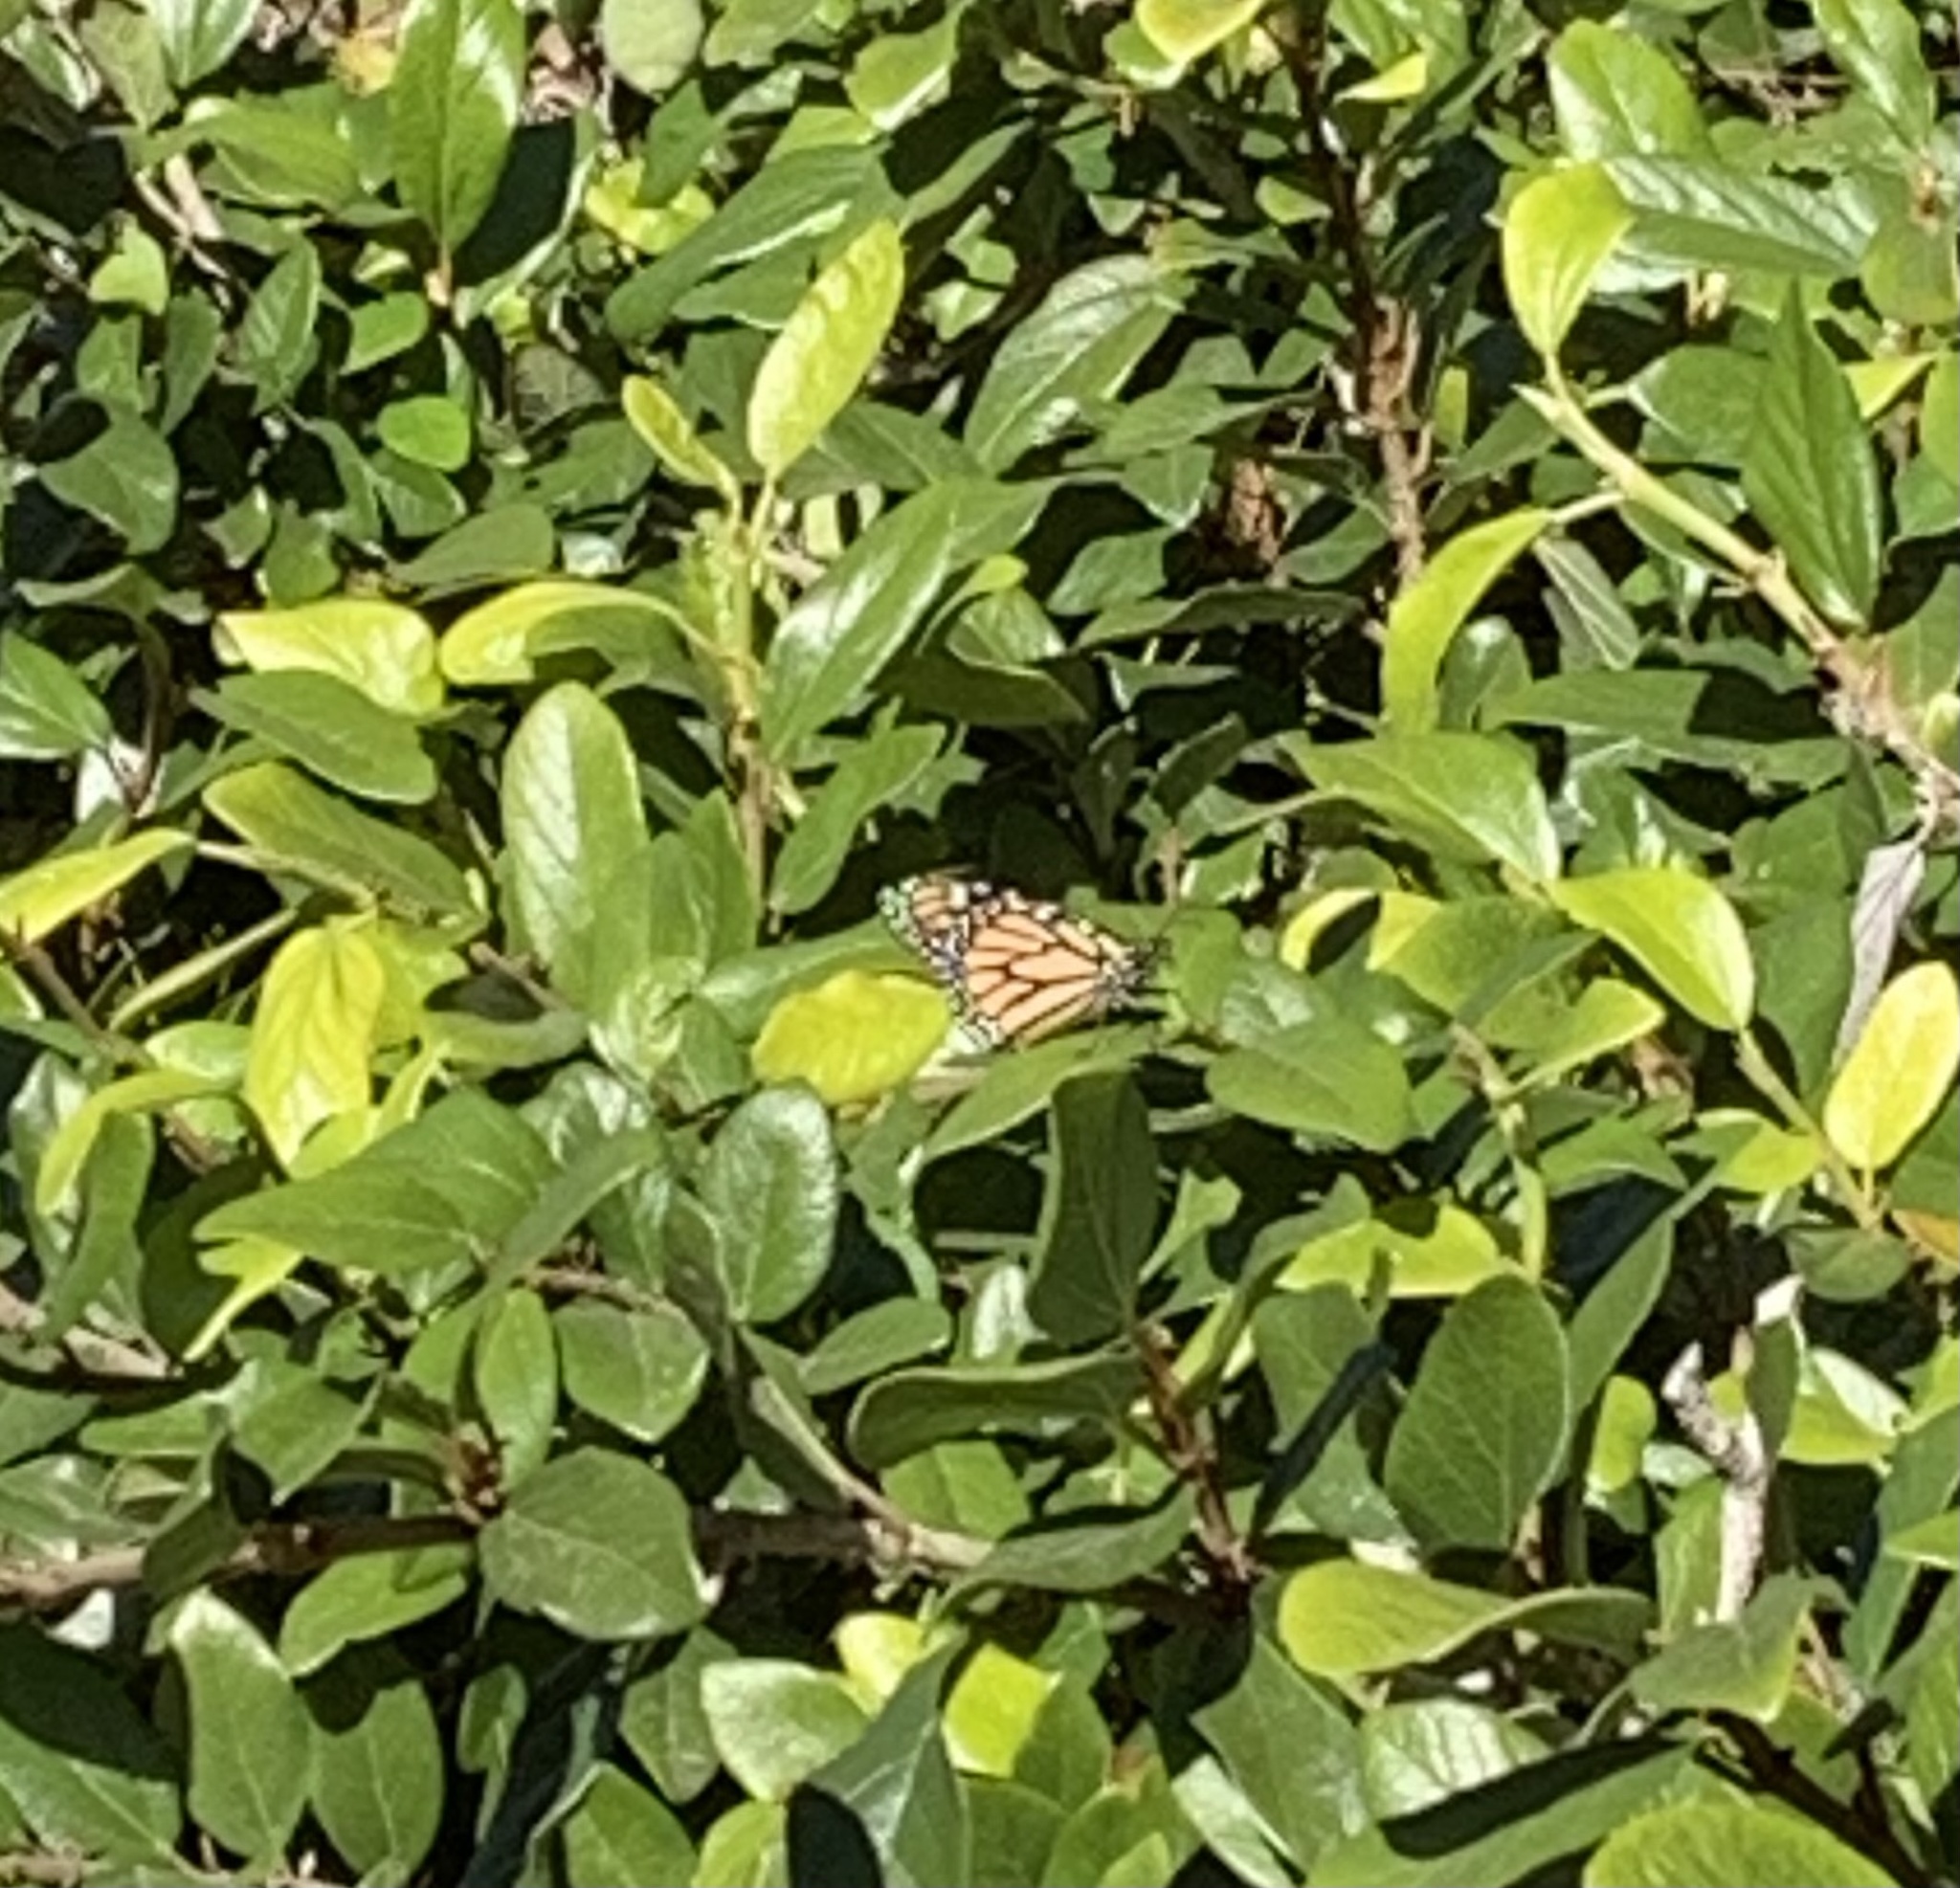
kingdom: Animalia
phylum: Arthropoda
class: Insecta
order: Lepidoptera
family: Nymphalidae
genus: Danaus
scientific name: Danaus plexippus
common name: Monarch
